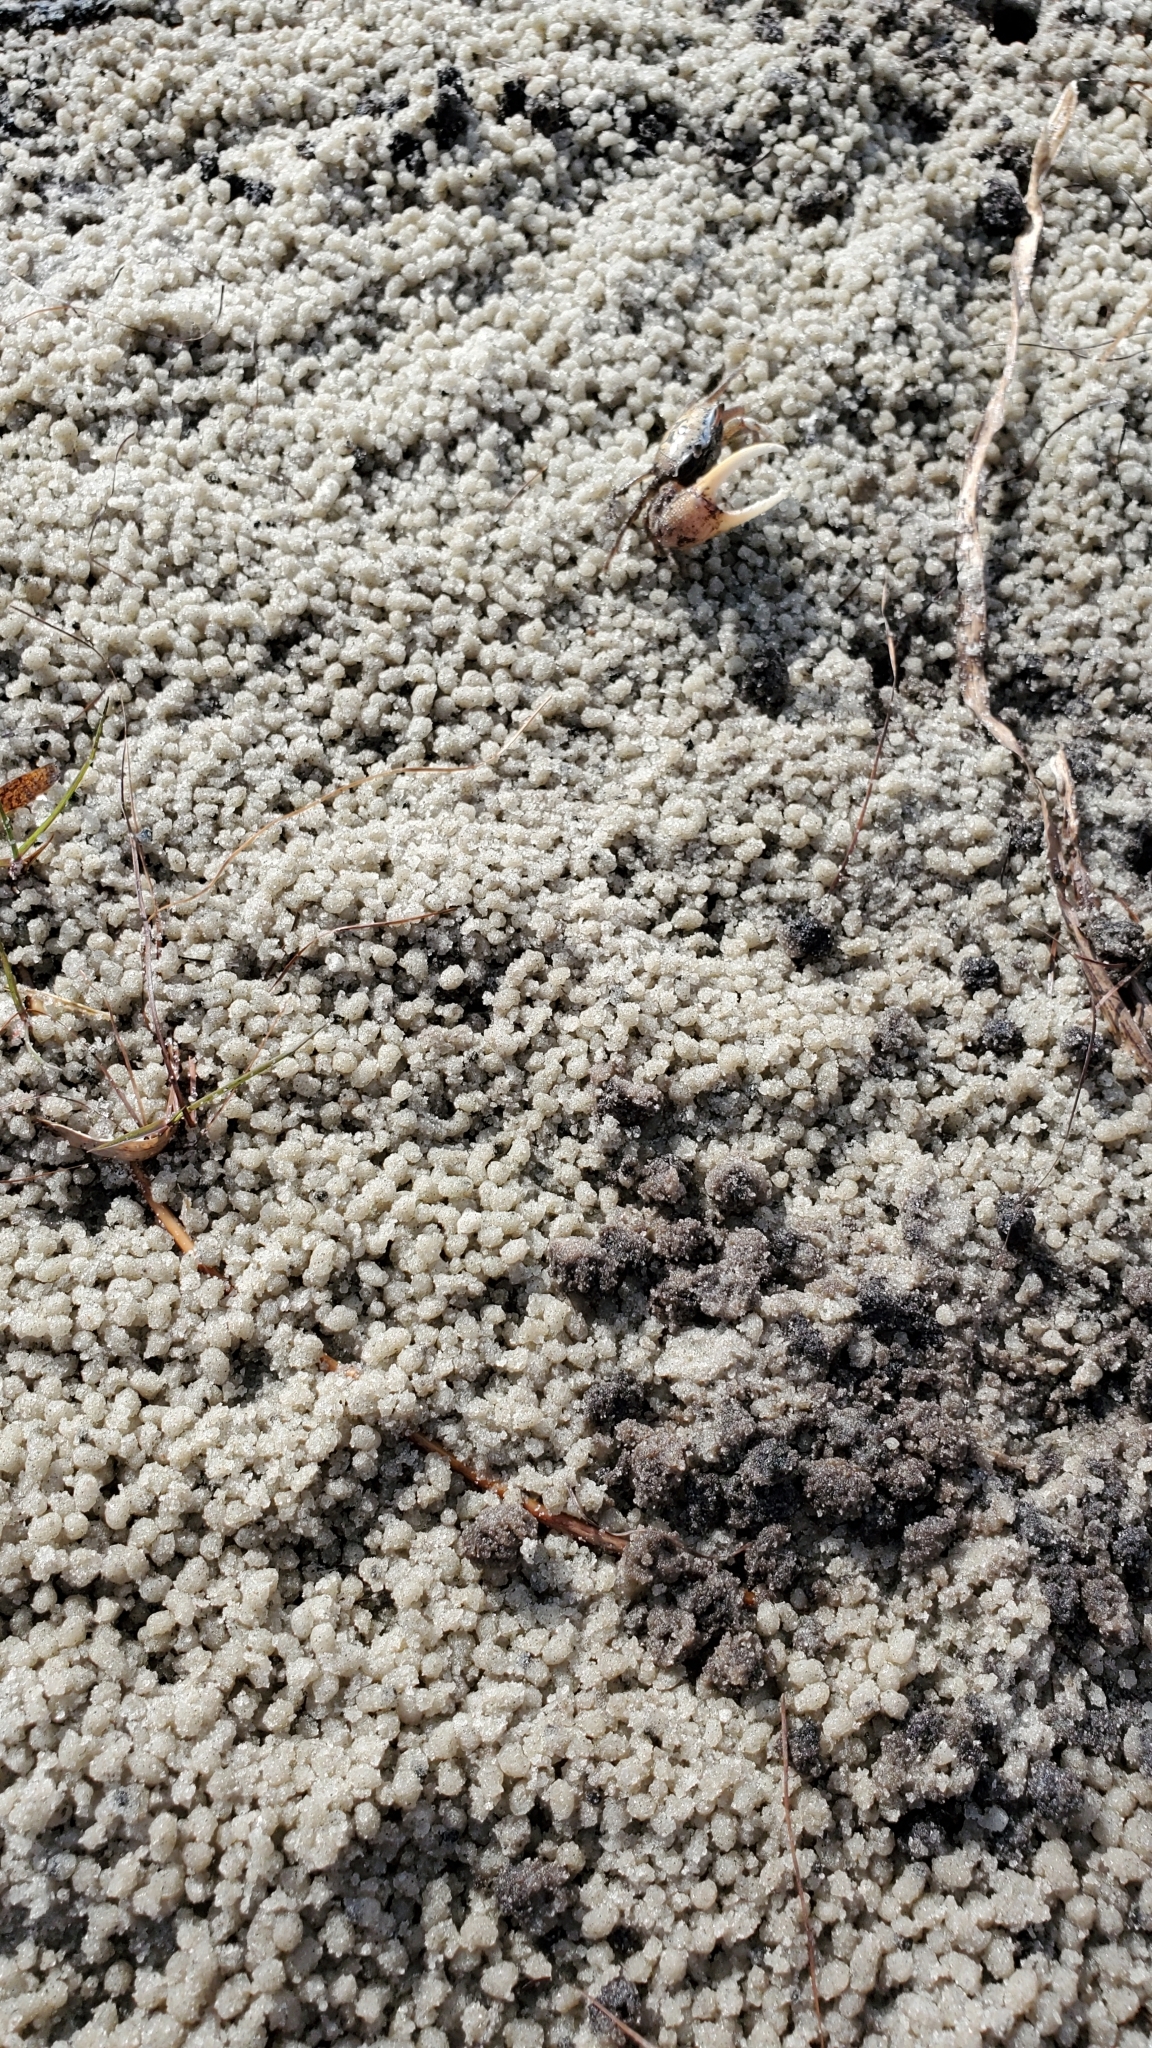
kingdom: Animalia
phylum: Arthropoda
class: Malacostraca
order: Decapoda
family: Ocypodidae
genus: Leptuca
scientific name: Leptuca pugilator
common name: Atlantic sand fiddler crab
